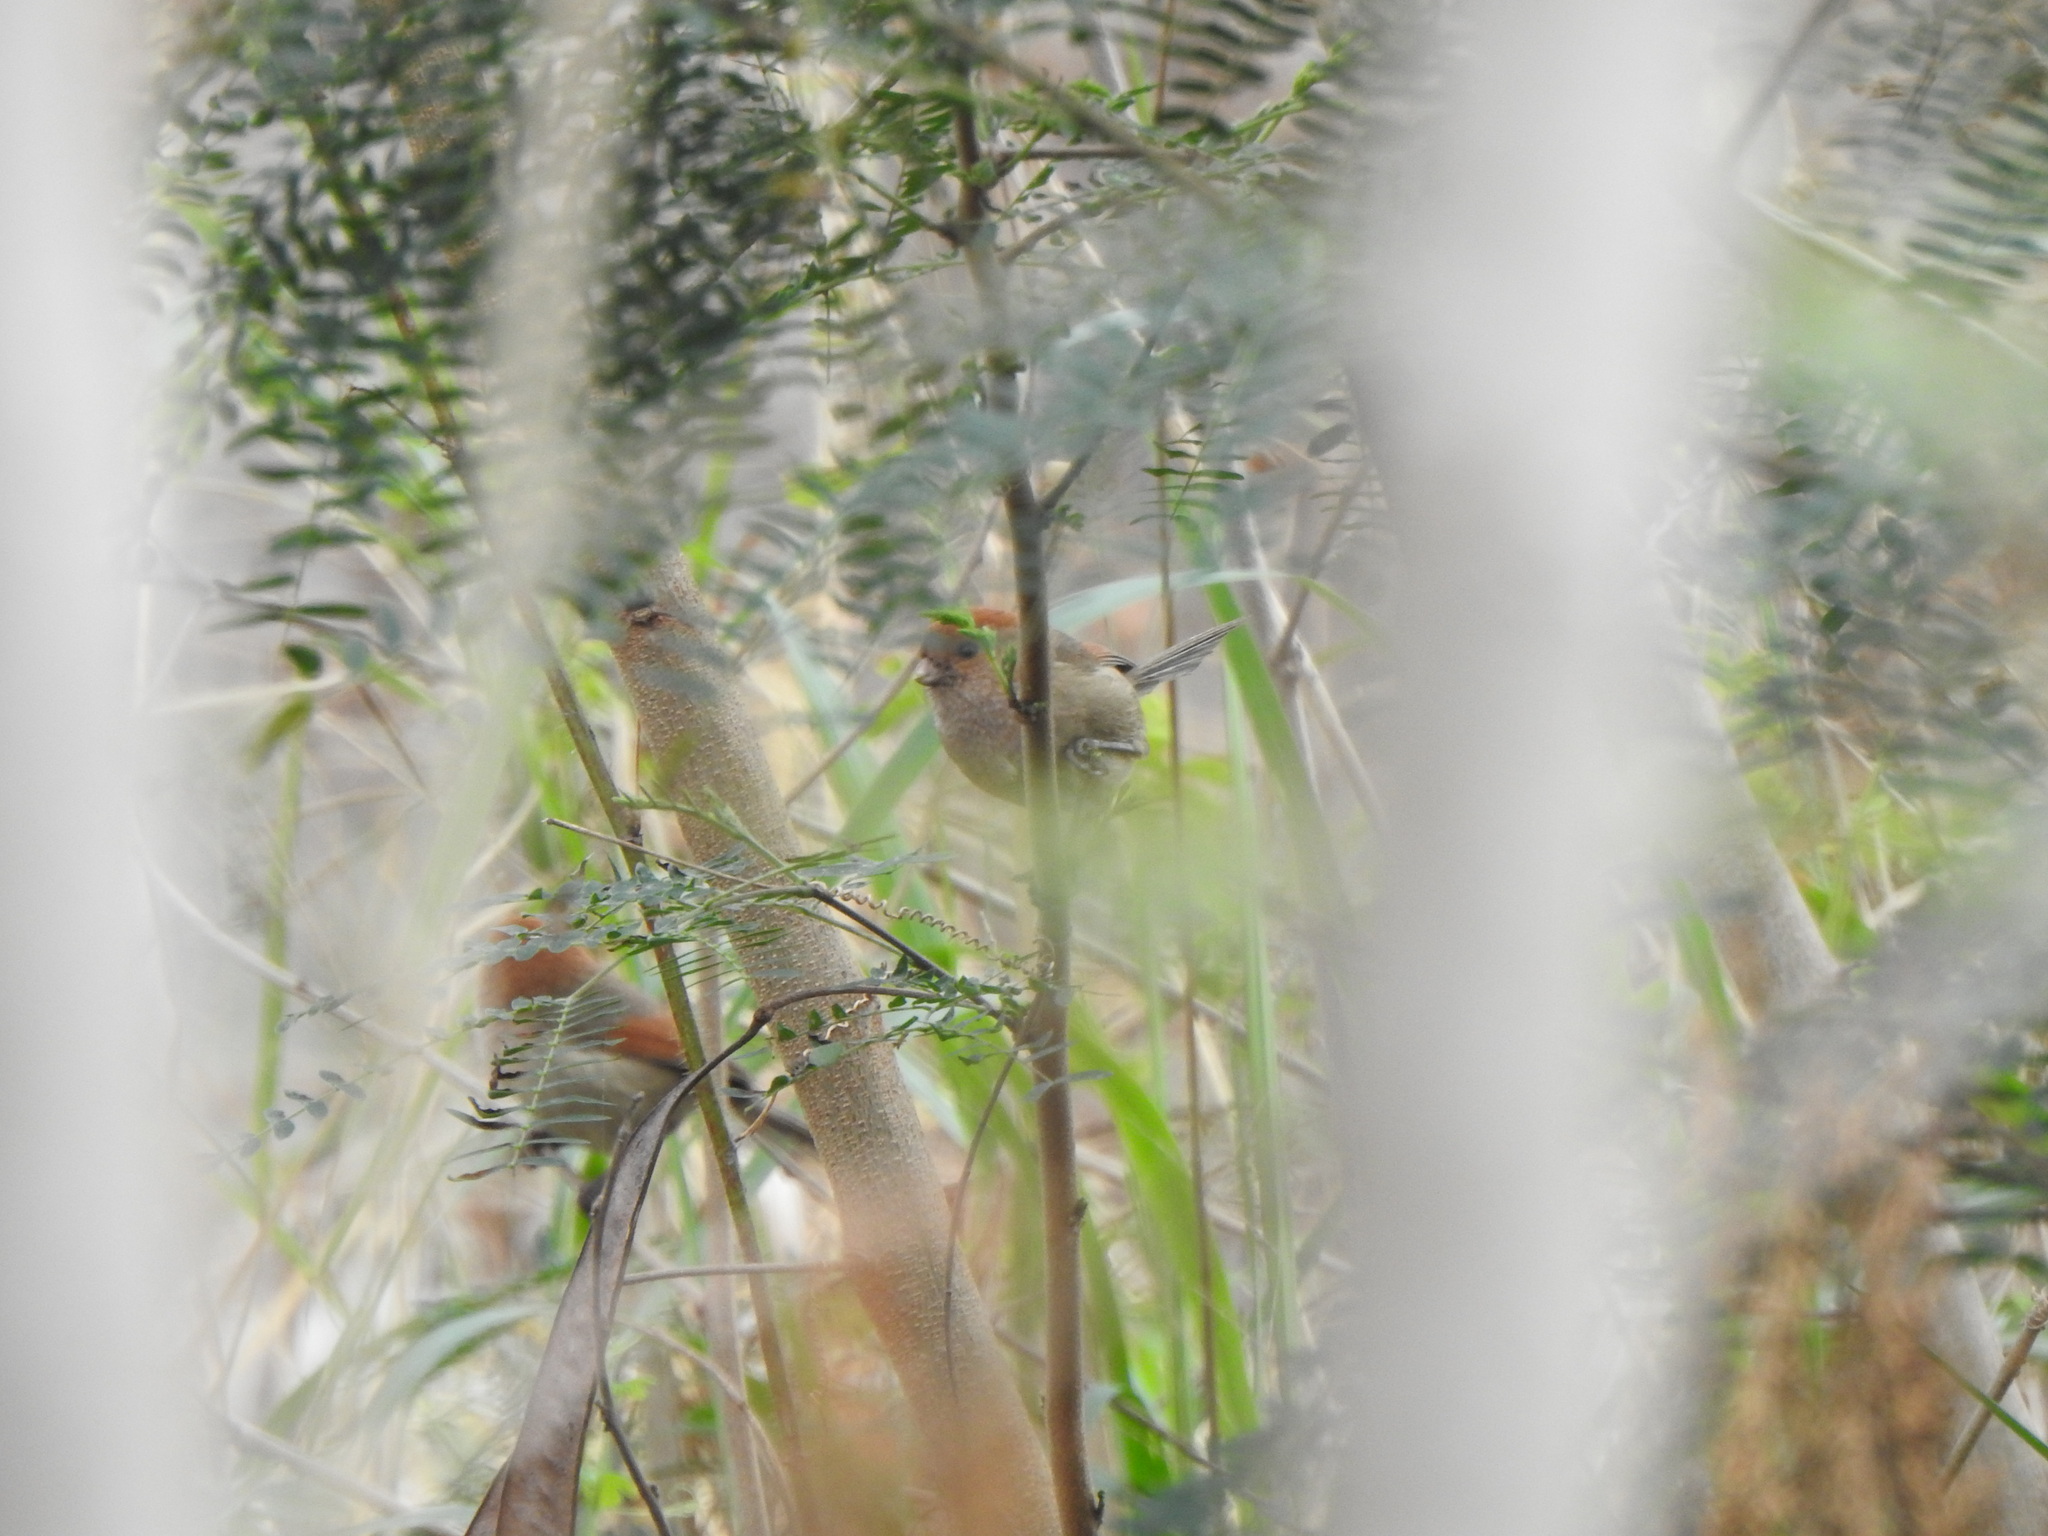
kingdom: Animalia
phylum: Chordata
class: Aves
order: Passeriformes
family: Sylviidae
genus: Sinosuthora
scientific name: Sinosuthora webbiana
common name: Vinous-throated parrotbill
